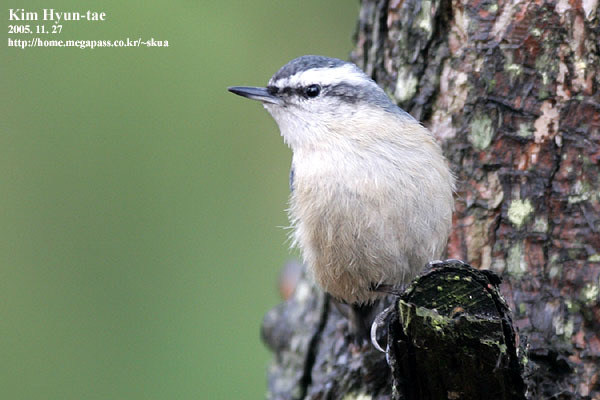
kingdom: Animalia
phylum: Chordata
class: Aves
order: Passeriformes
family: Sittidae
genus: Sitta
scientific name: Sitta villosa
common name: Chinese nuthatch
